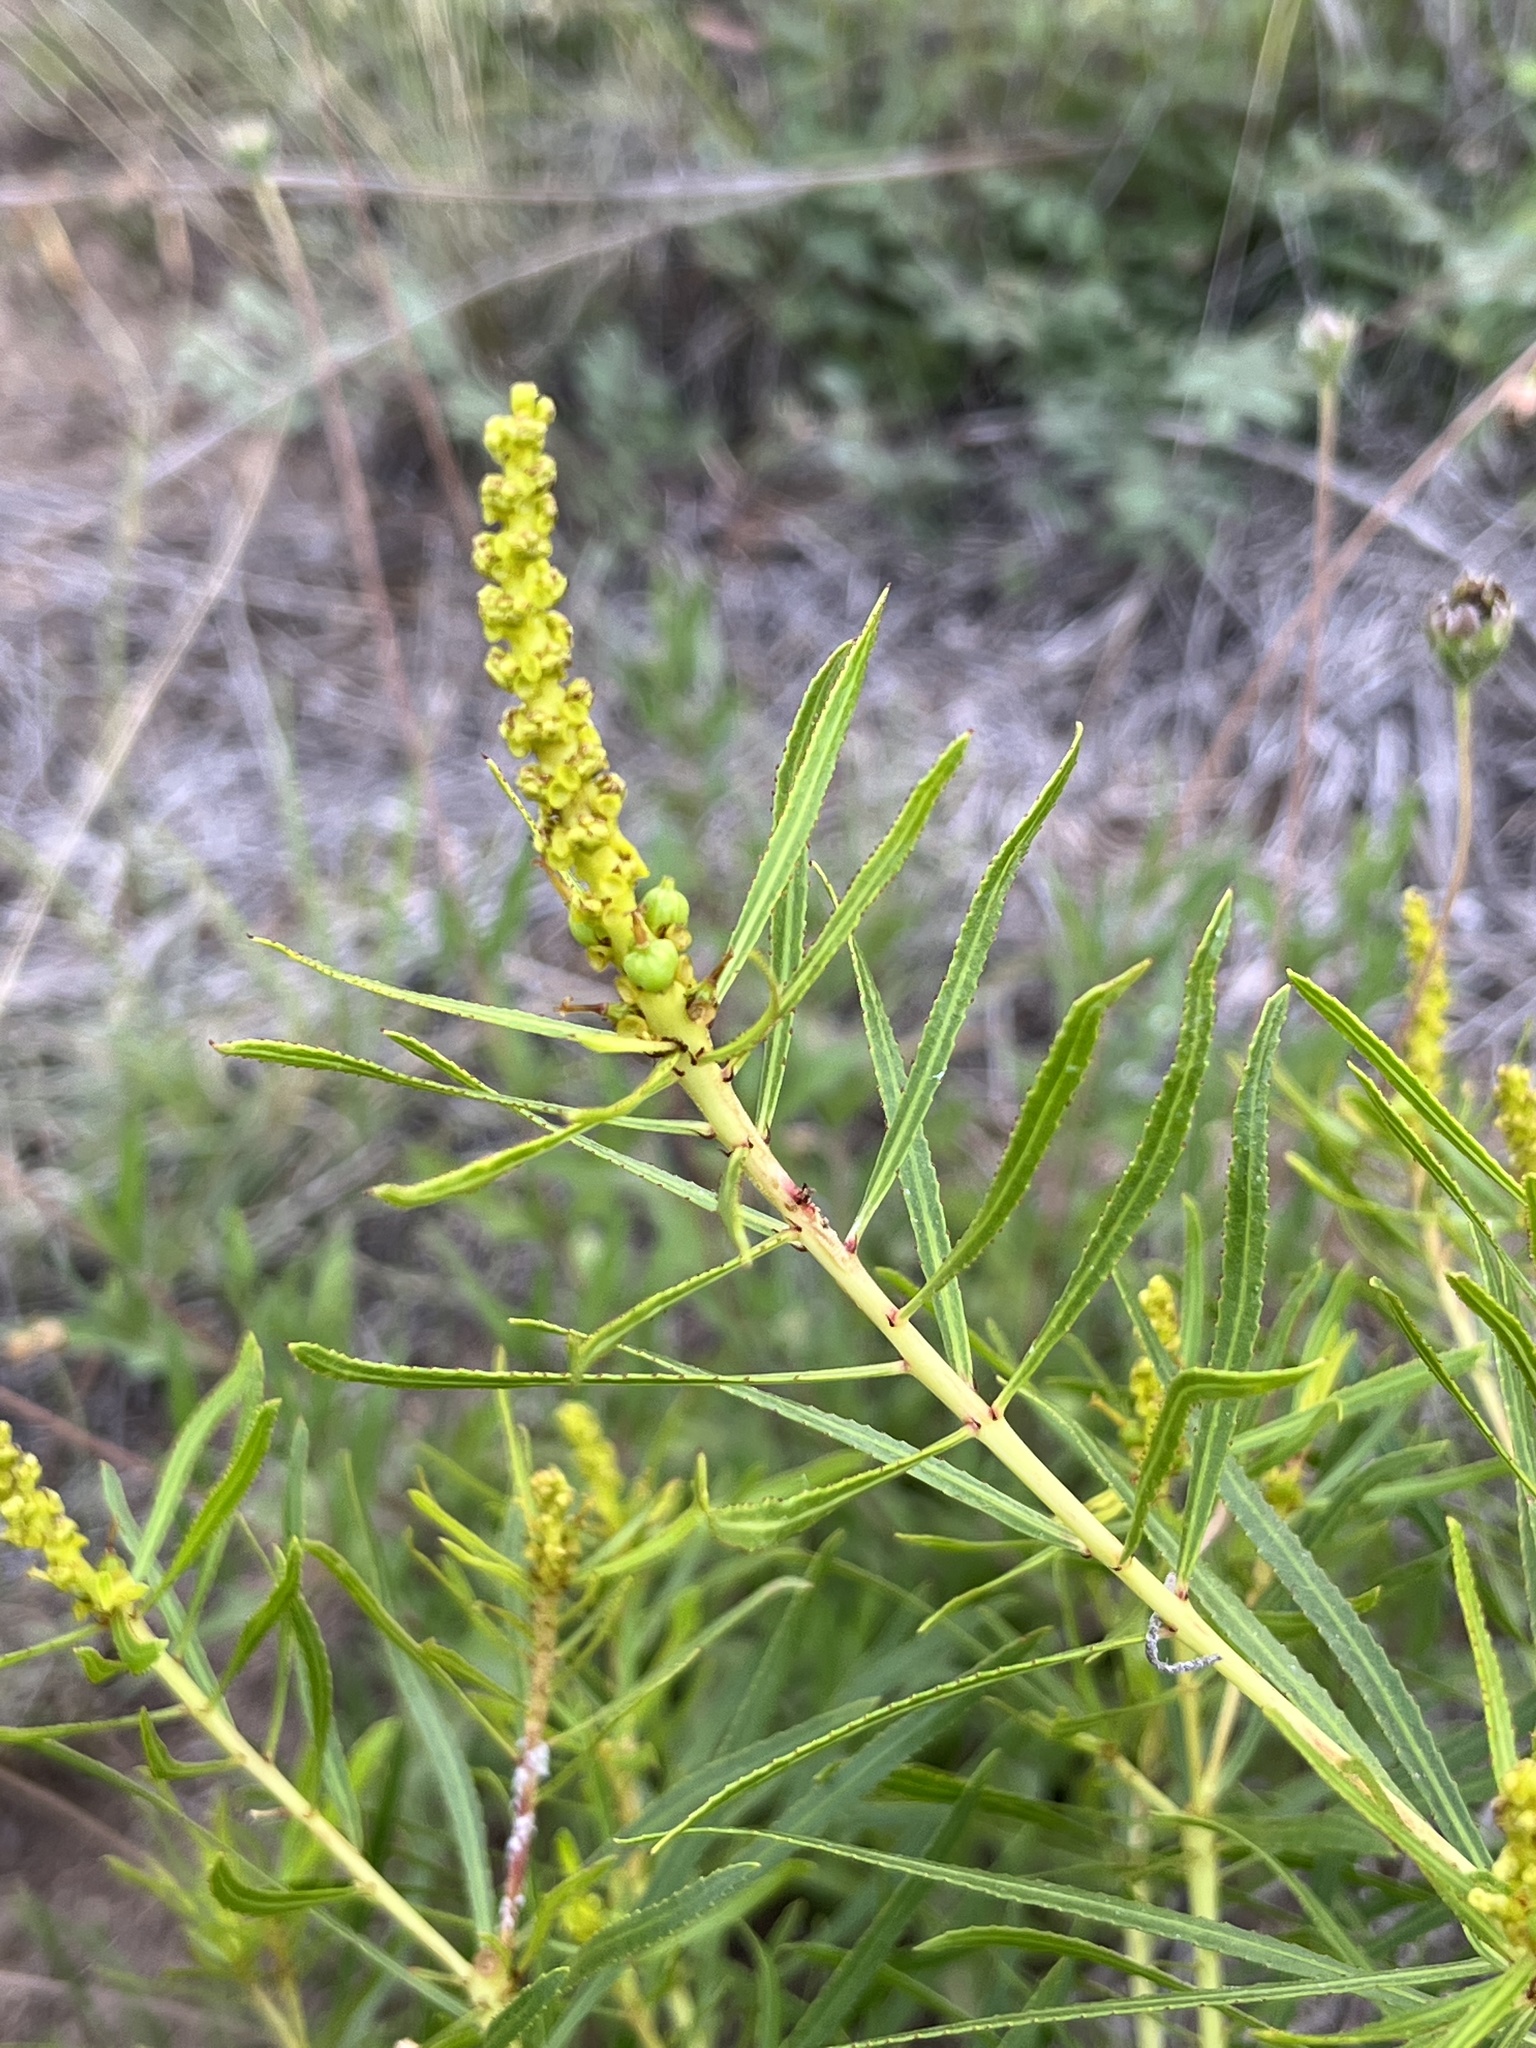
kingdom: Plantae
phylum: Tracheophyta
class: Magnoliopsida
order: Malpighiales
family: Euphorbiaceae
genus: Stillingia
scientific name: Stillingia texana
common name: Texas stillingia
